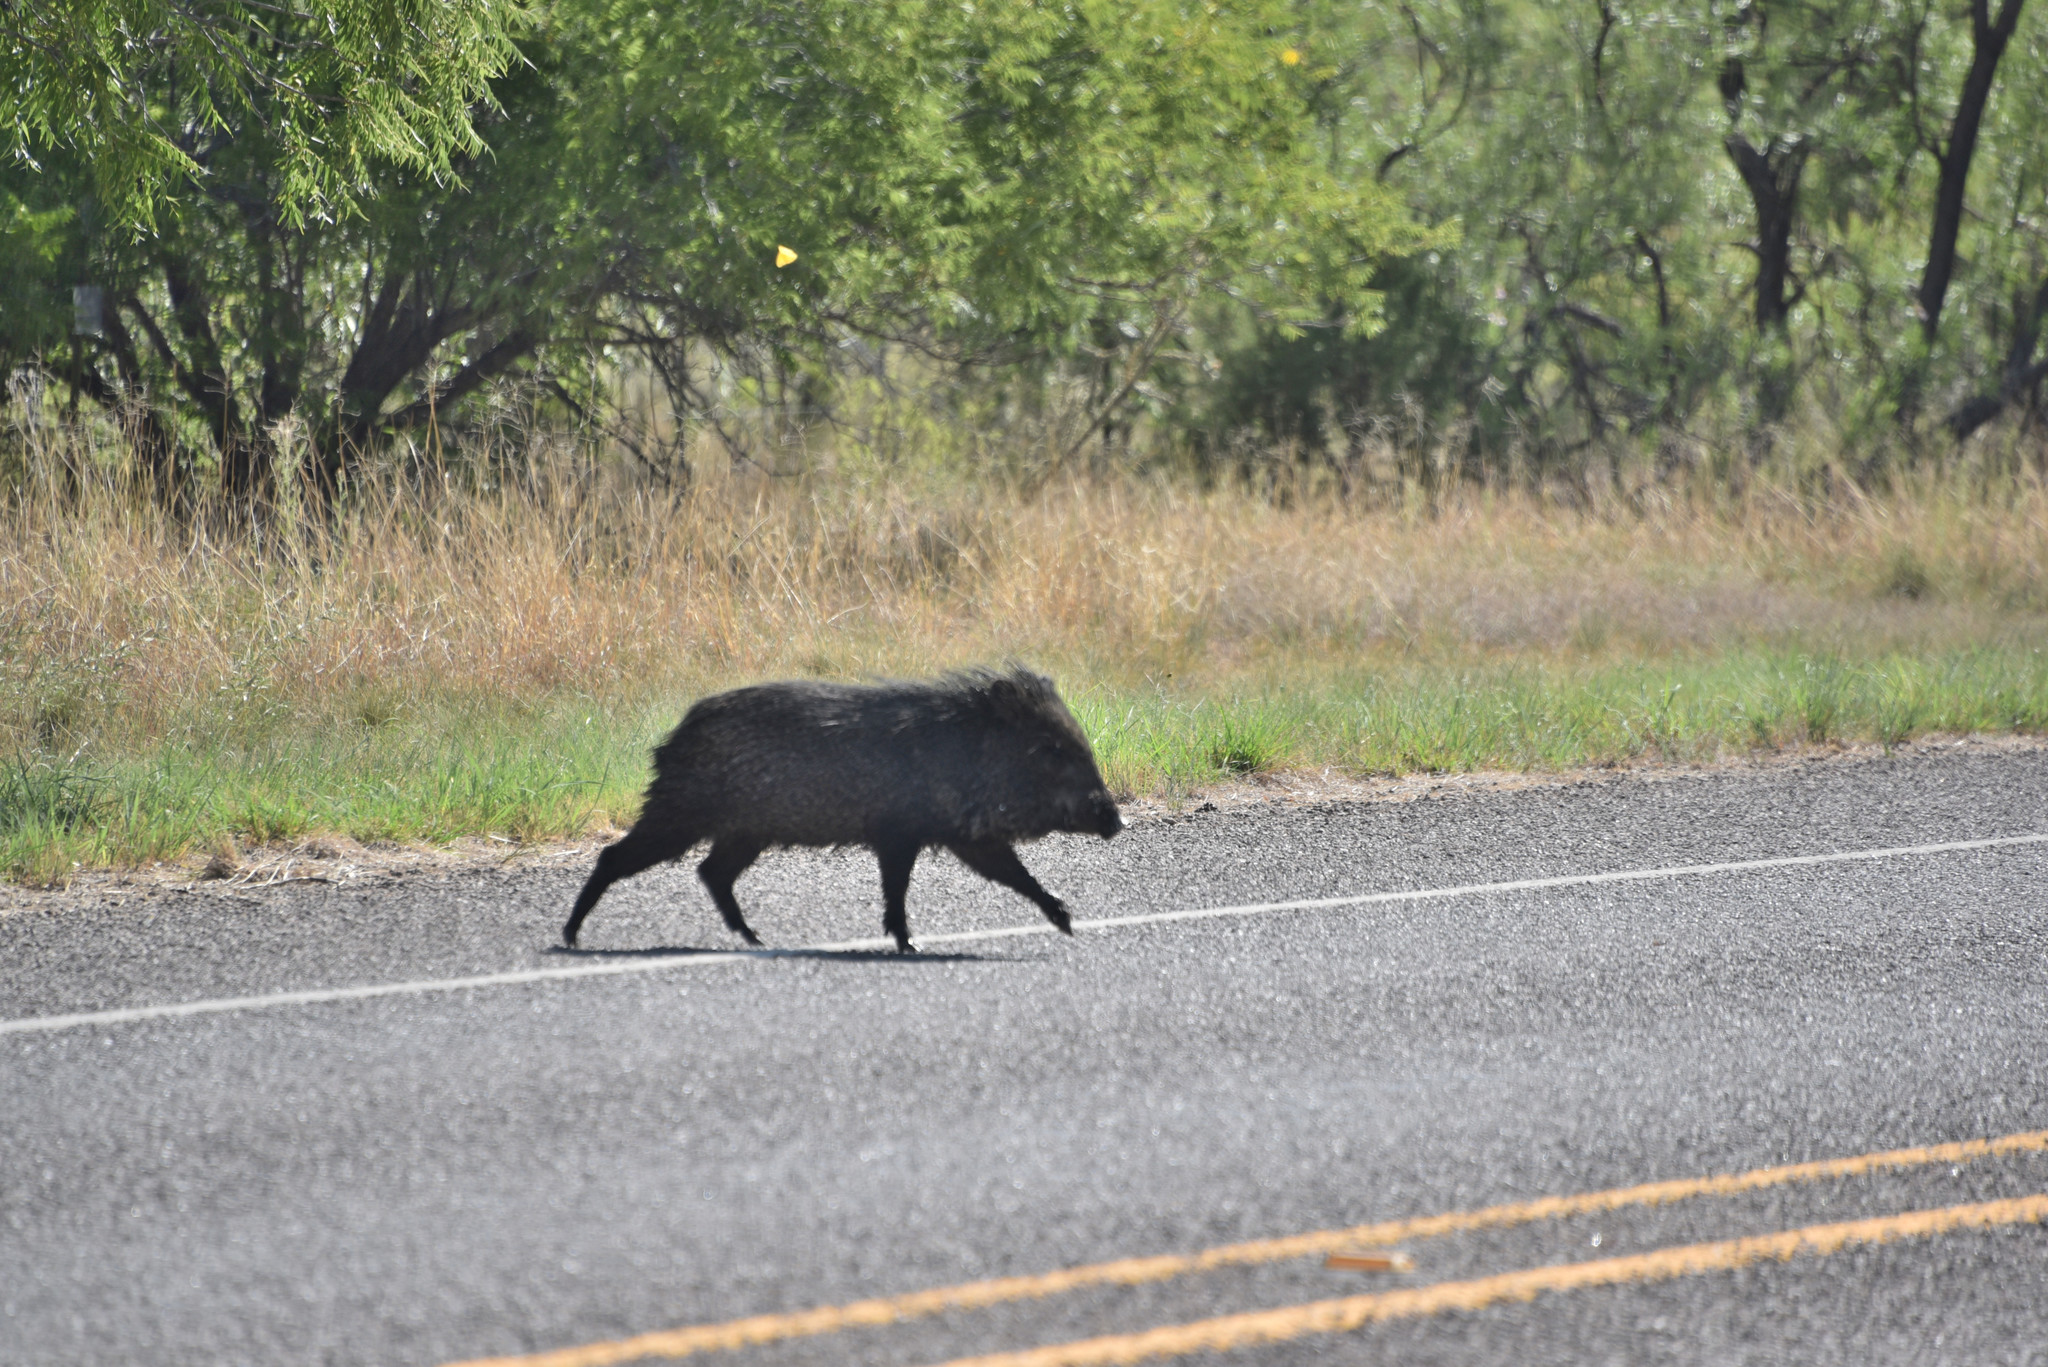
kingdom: Animalia
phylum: Chordata
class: Mammalia
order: Artiodactyla
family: Tayassuidae
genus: Pecari
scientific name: Pecari tajacu
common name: Collared peccary
